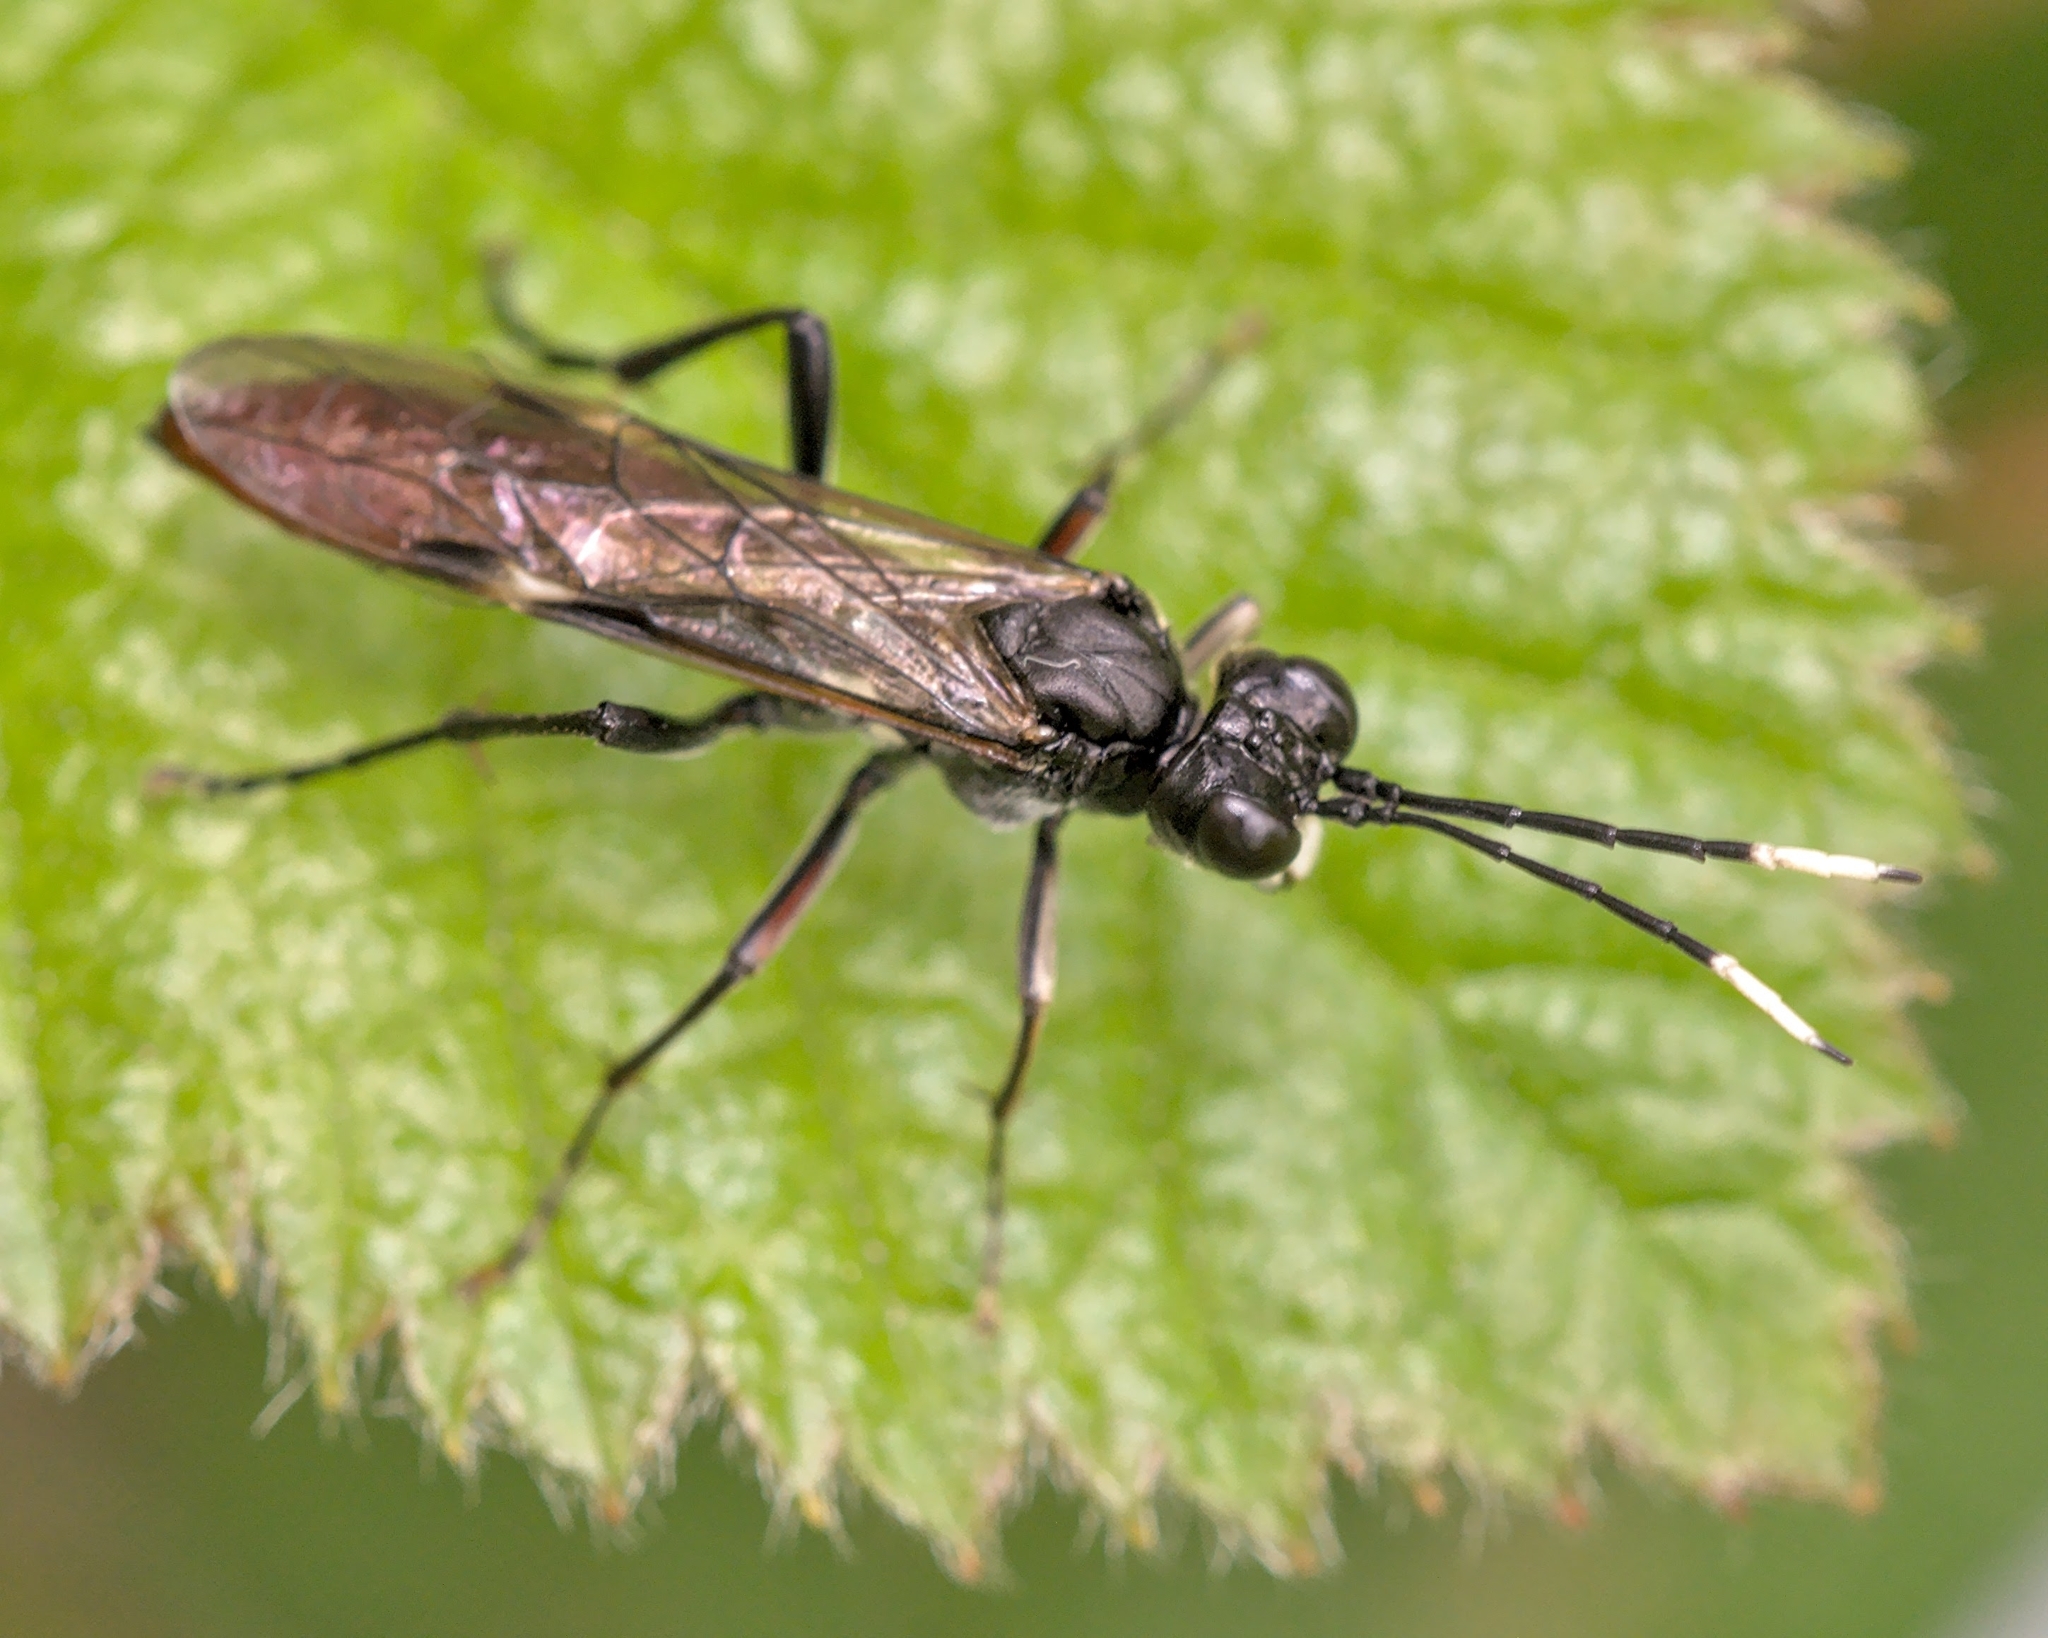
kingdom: Animalia
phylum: Arthropoda
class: Insecta
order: Hymenoptera
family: Tenthredinidae
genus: Tenthredo
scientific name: Tenthredo livida
